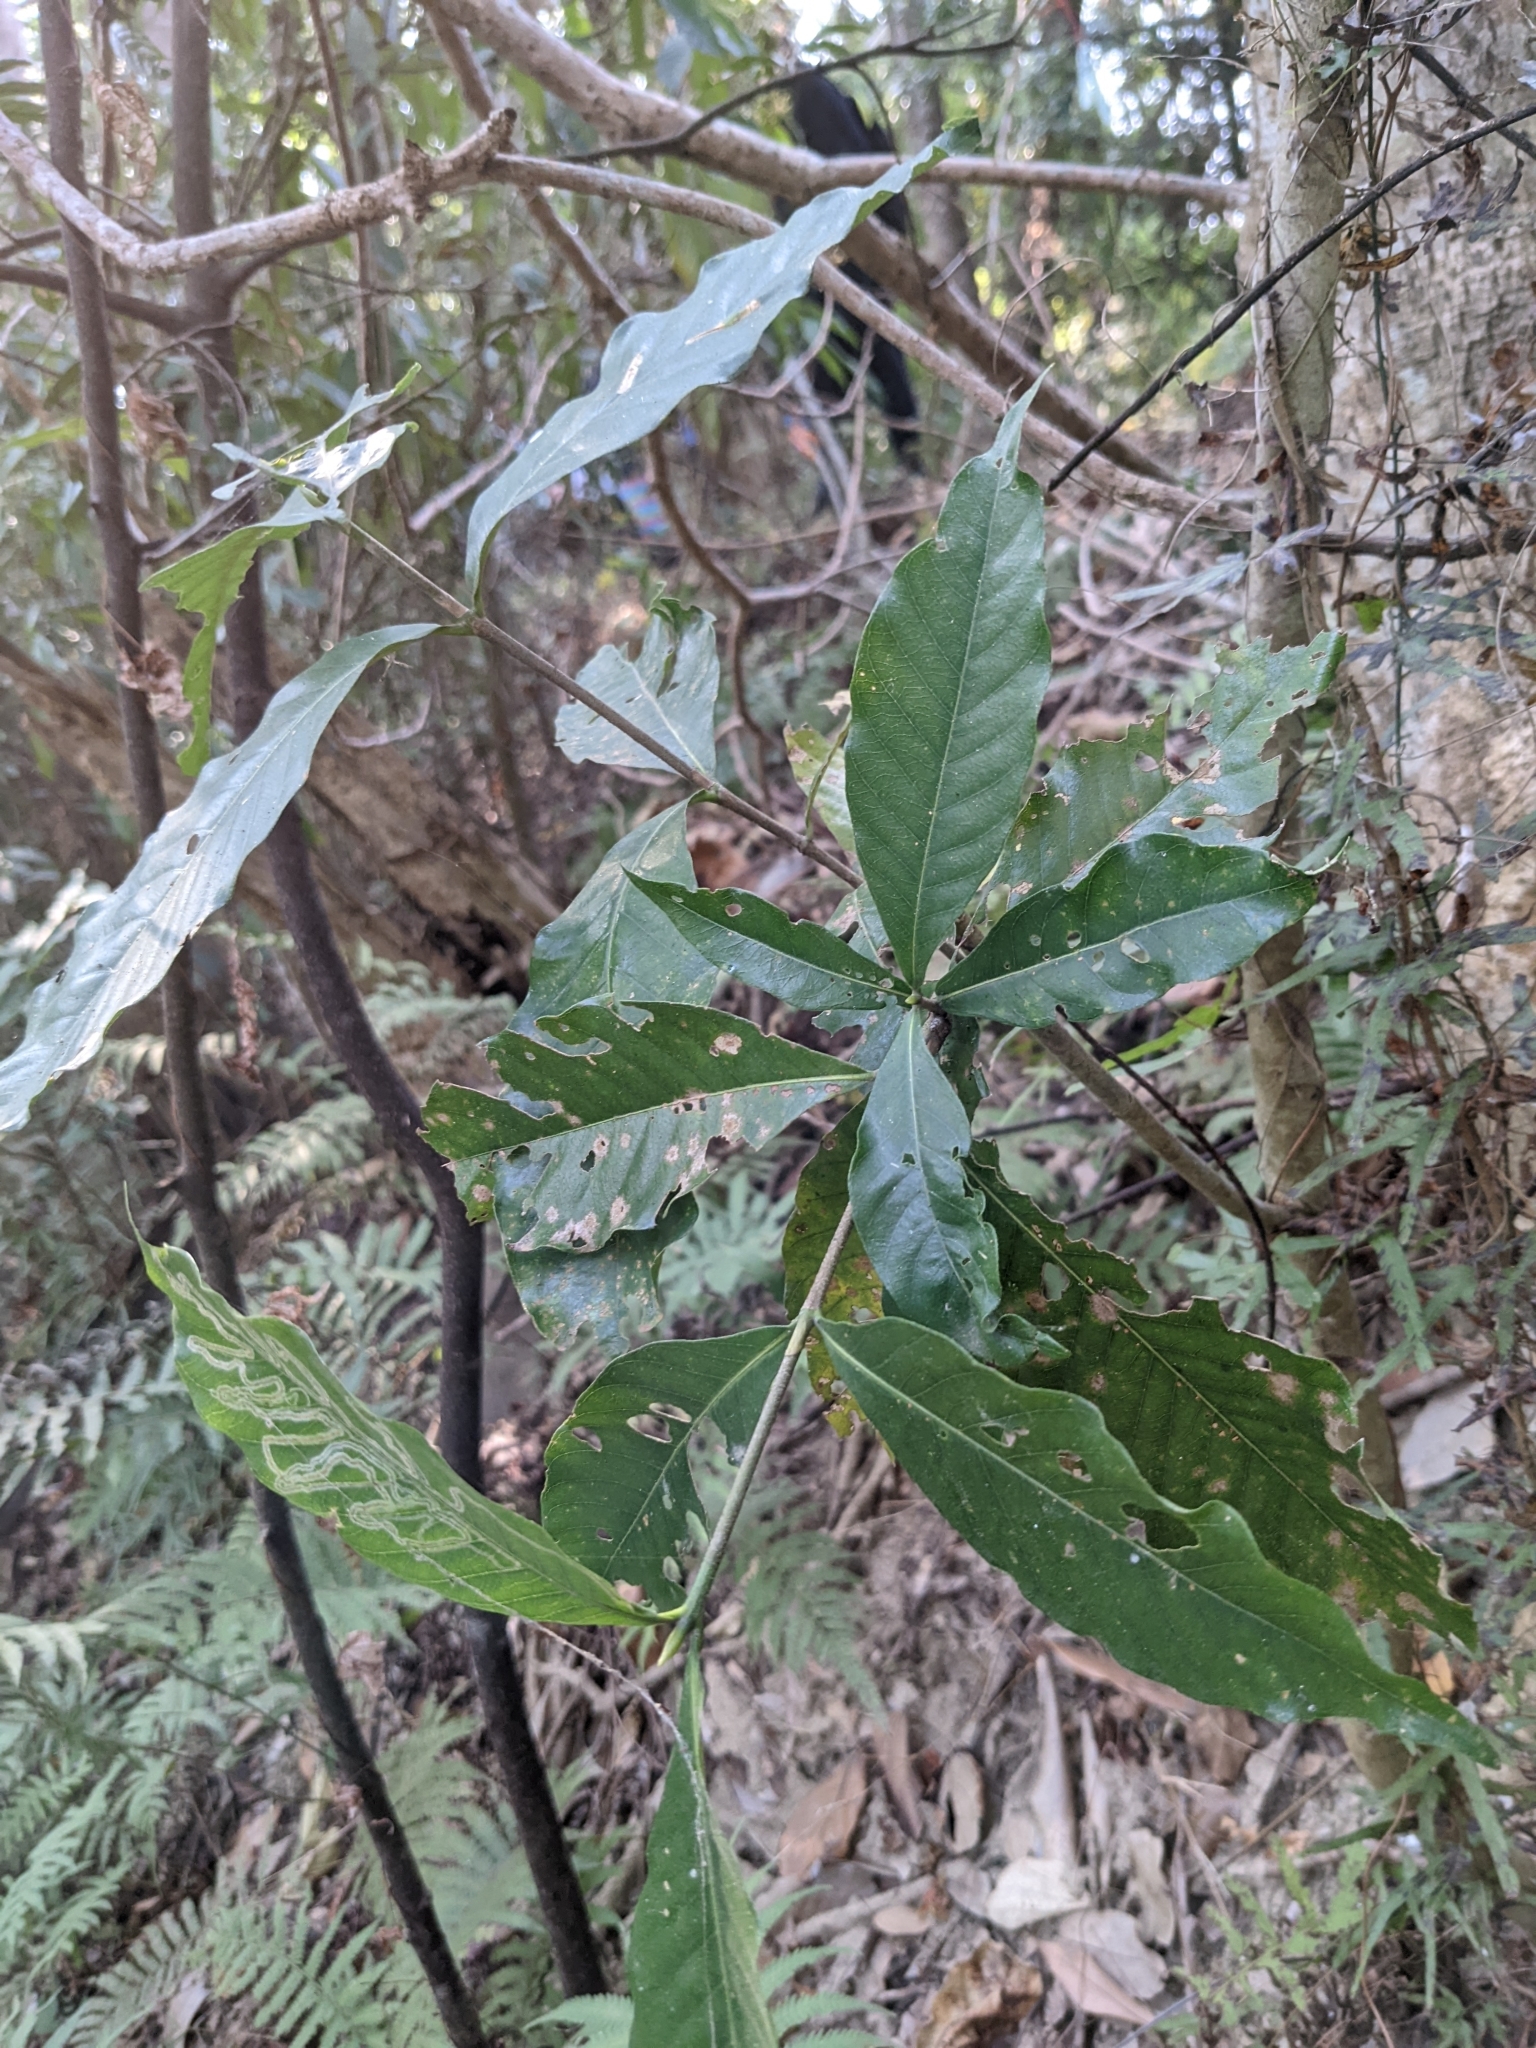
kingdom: Plantae
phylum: Tracheophyta
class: Magnoliopsida
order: Gentianales
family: Rubiaceae
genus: Gardenia
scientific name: Gardenia jasminoides
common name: Cape-jasmine
